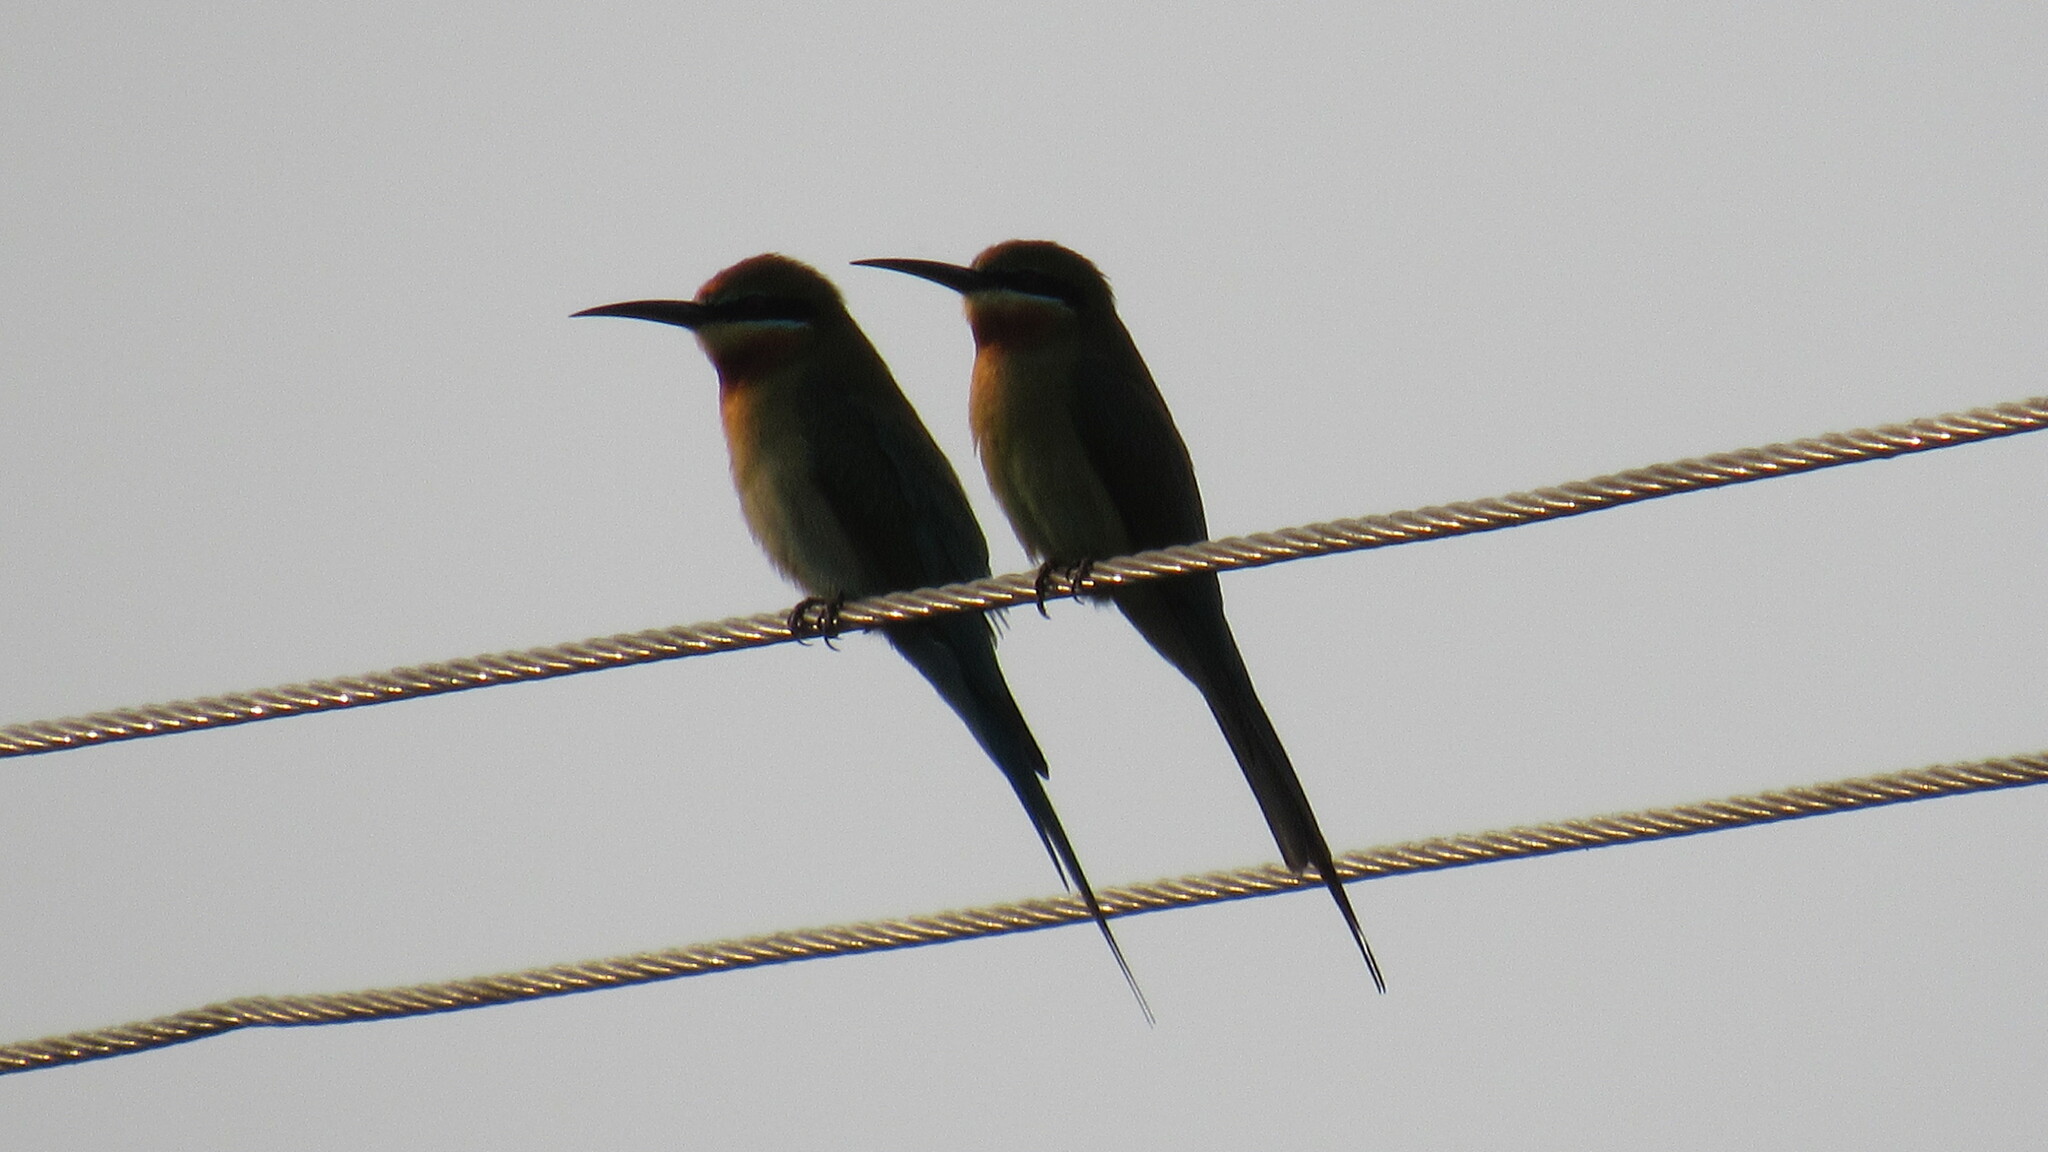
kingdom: Animalia
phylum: Chordata
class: Aves
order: Coraciiformes
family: Meropidae
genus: Merops
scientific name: Merops philippinus
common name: Blue-tailed bee-eater
